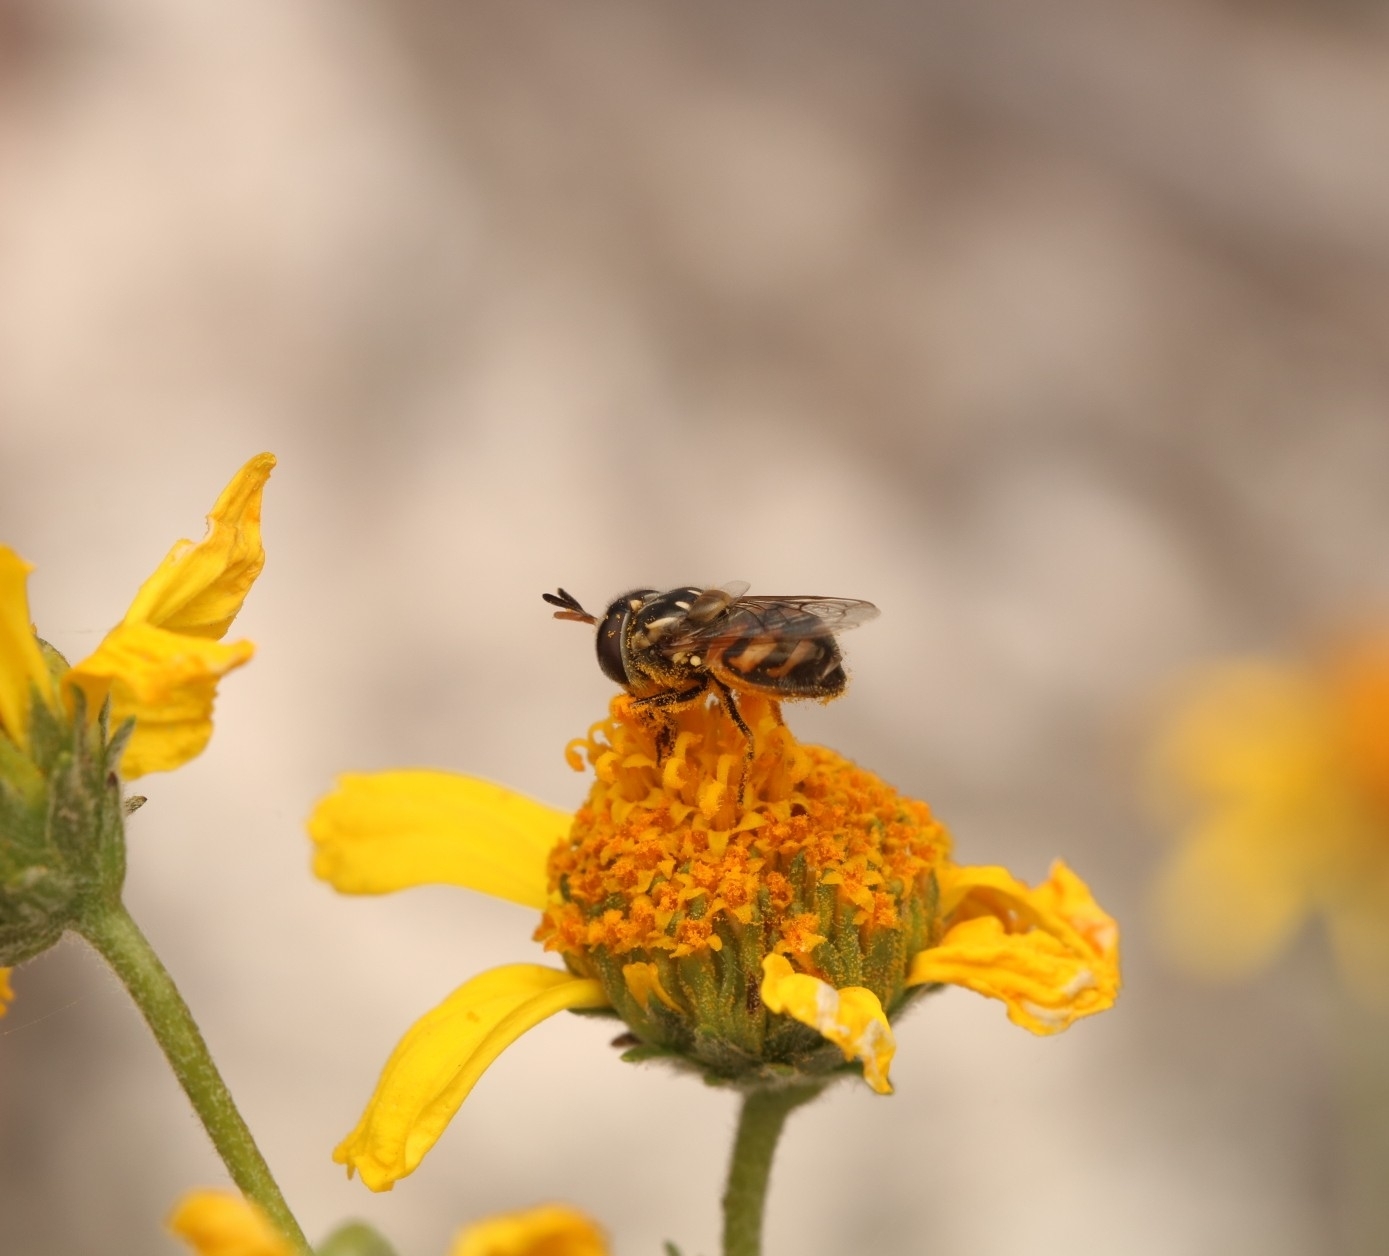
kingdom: Animalia
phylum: Arthropoda
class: Insecta
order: Diptera
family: Syrphidae
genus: Copestylum
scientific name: Copestylum marginatum
